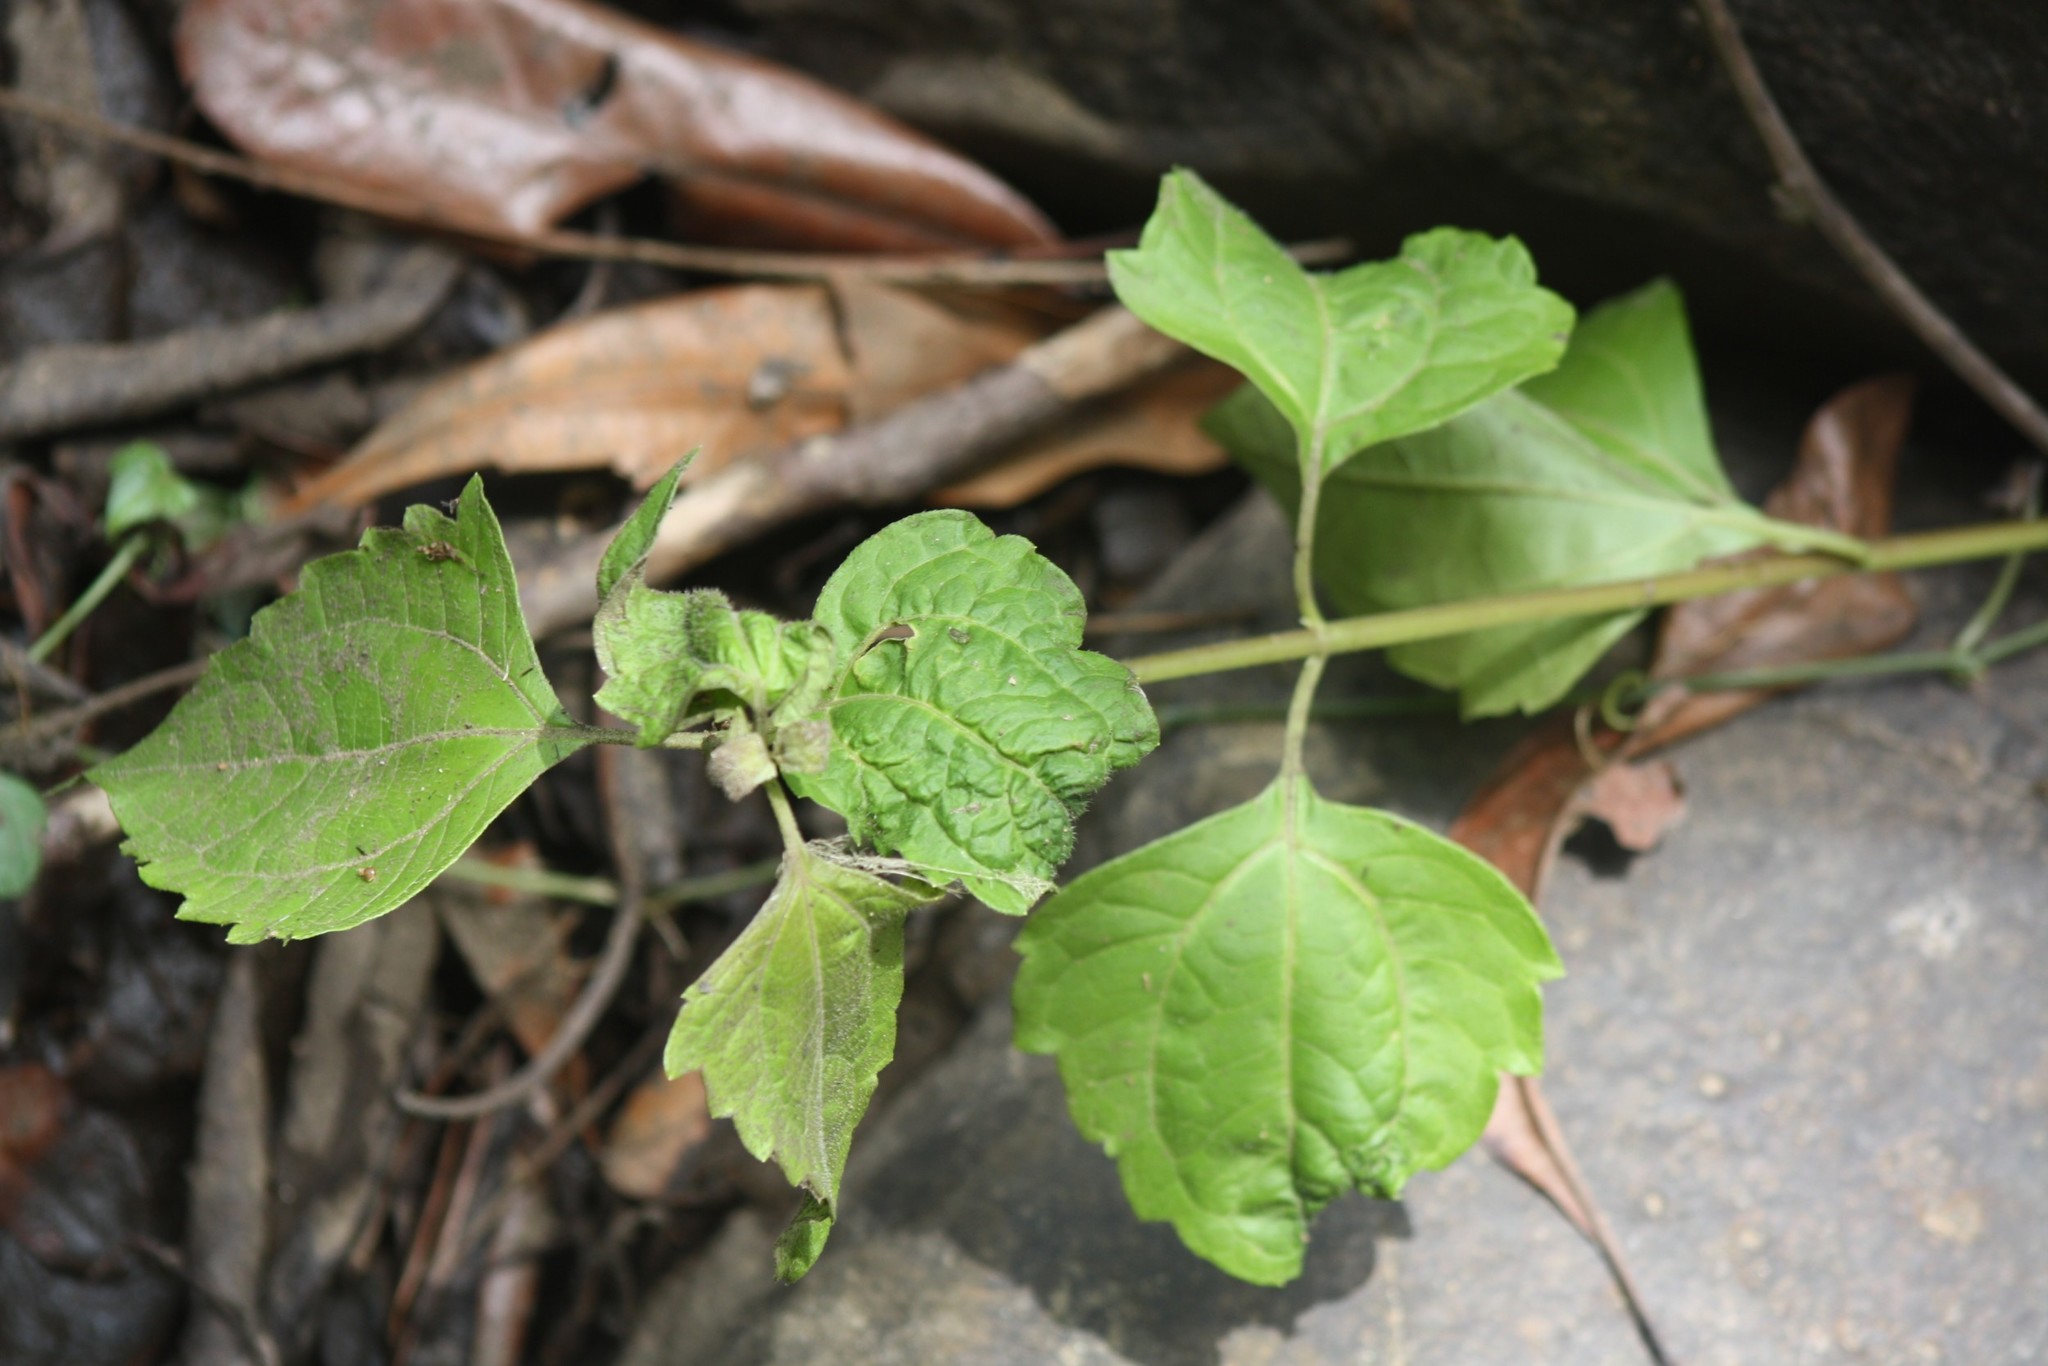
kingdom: Plantae
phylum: Tracheophyta
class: Magnoliopsida
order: Asterales
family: Asteraceae
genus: Chromolaena
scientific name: Chromolaena odorata
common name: Siamweed
